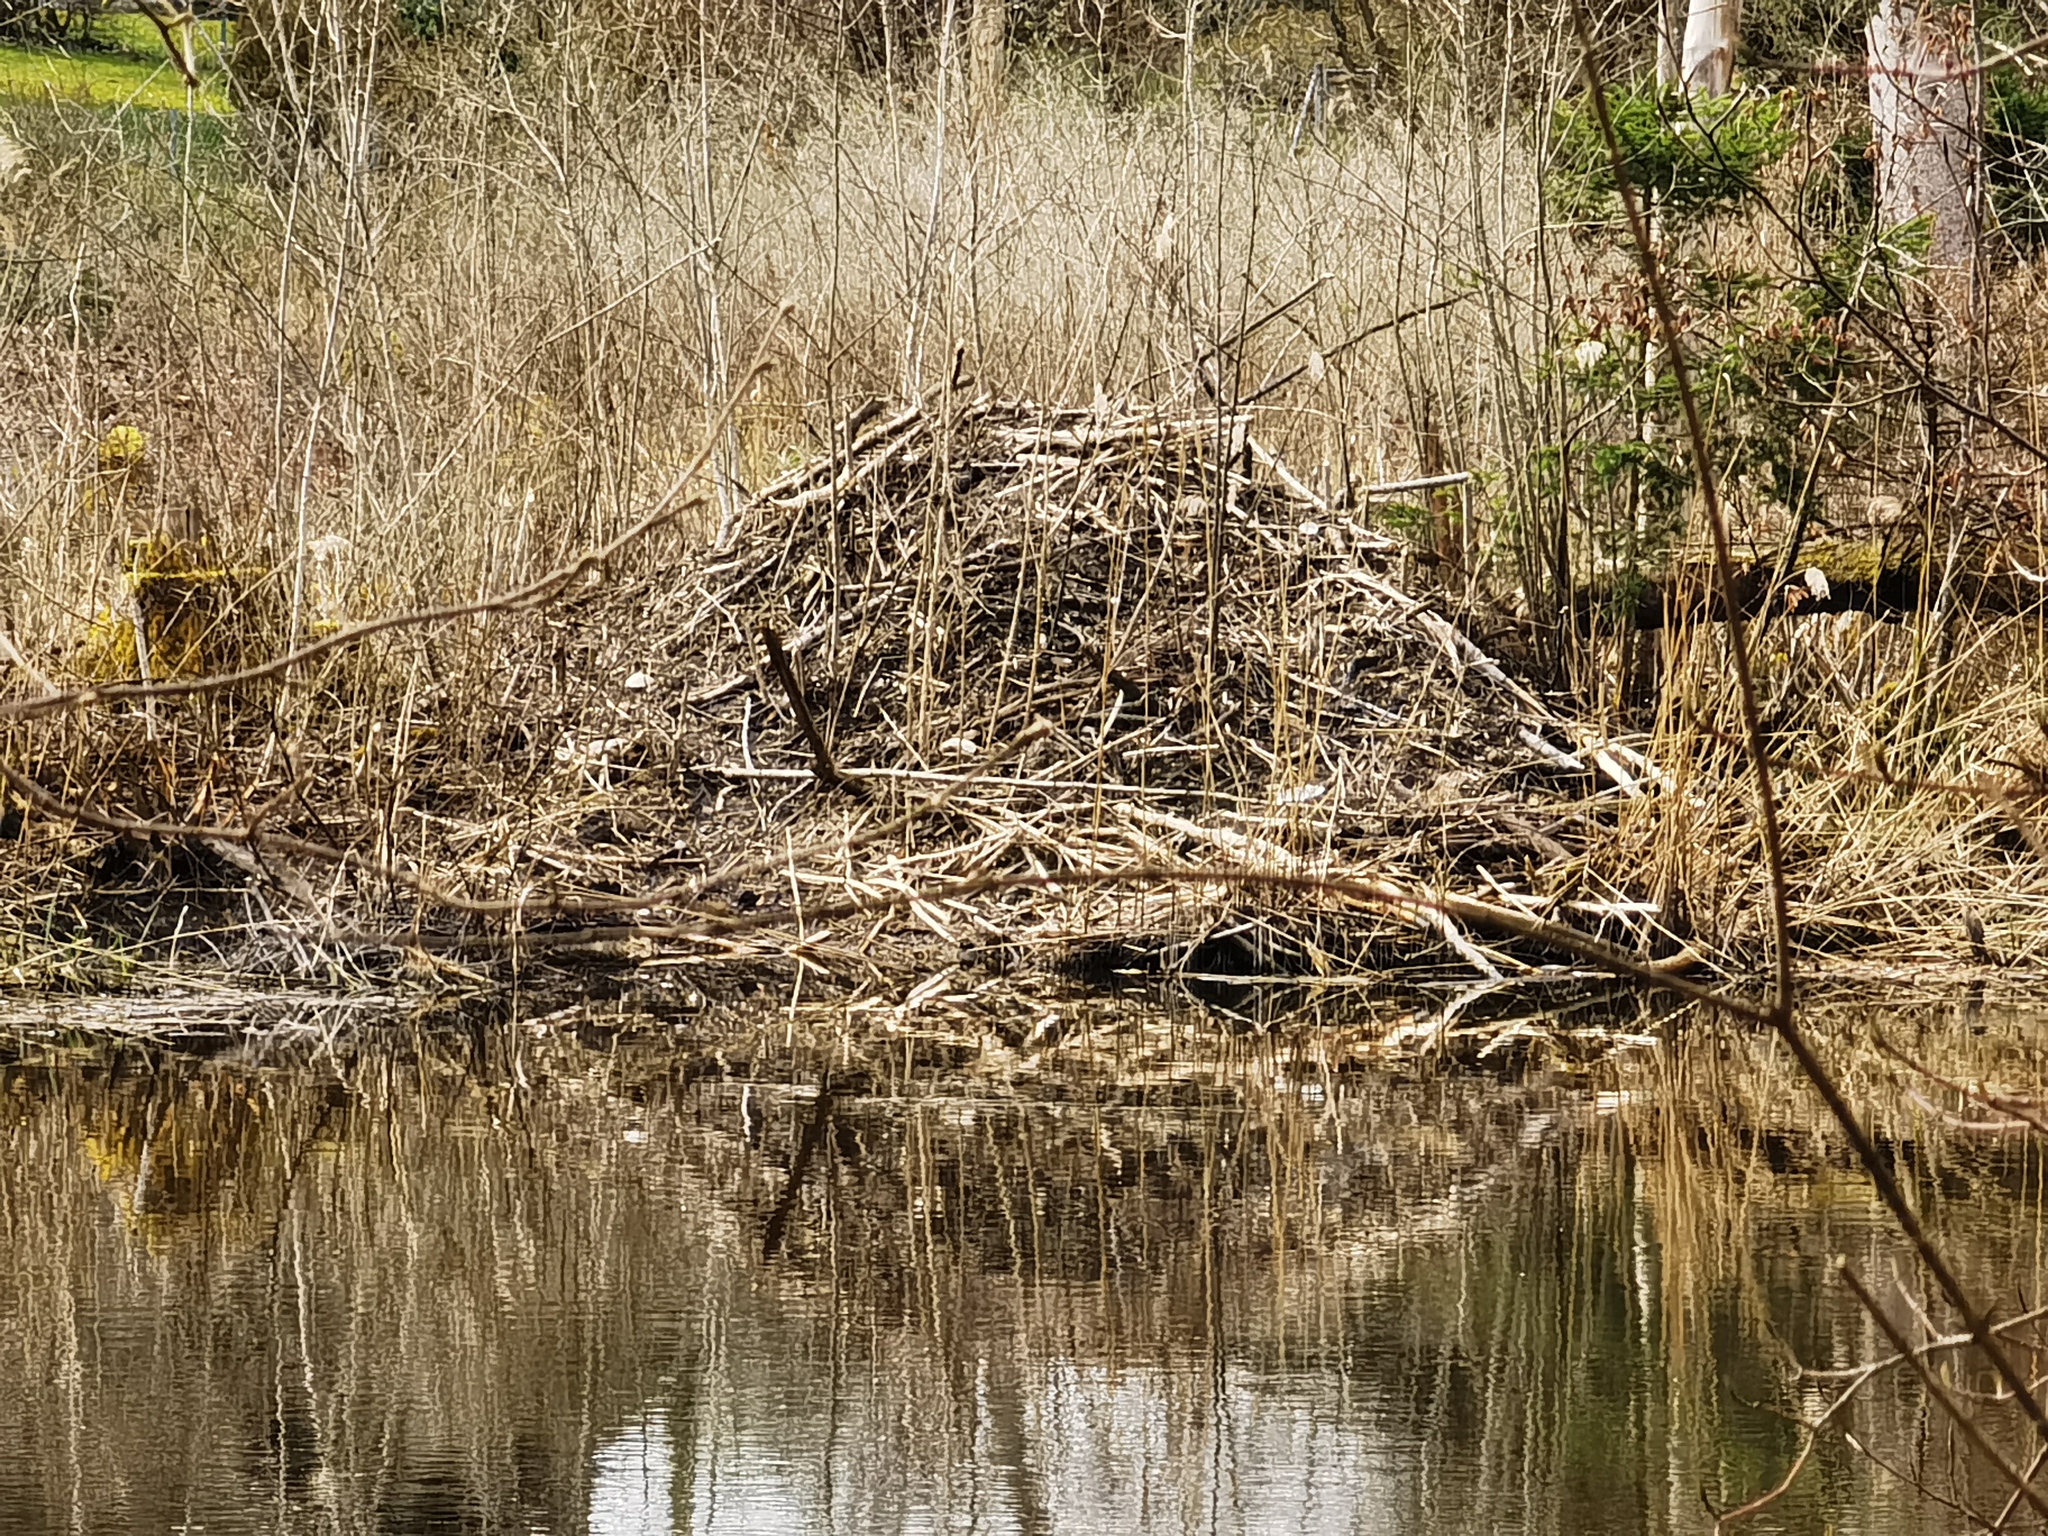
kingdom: Animalia
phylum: Chordata
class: Mammalia
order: Rodentia
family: Castoridae
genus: Castor
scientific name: Castor fiber
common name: Eurasian beaver
